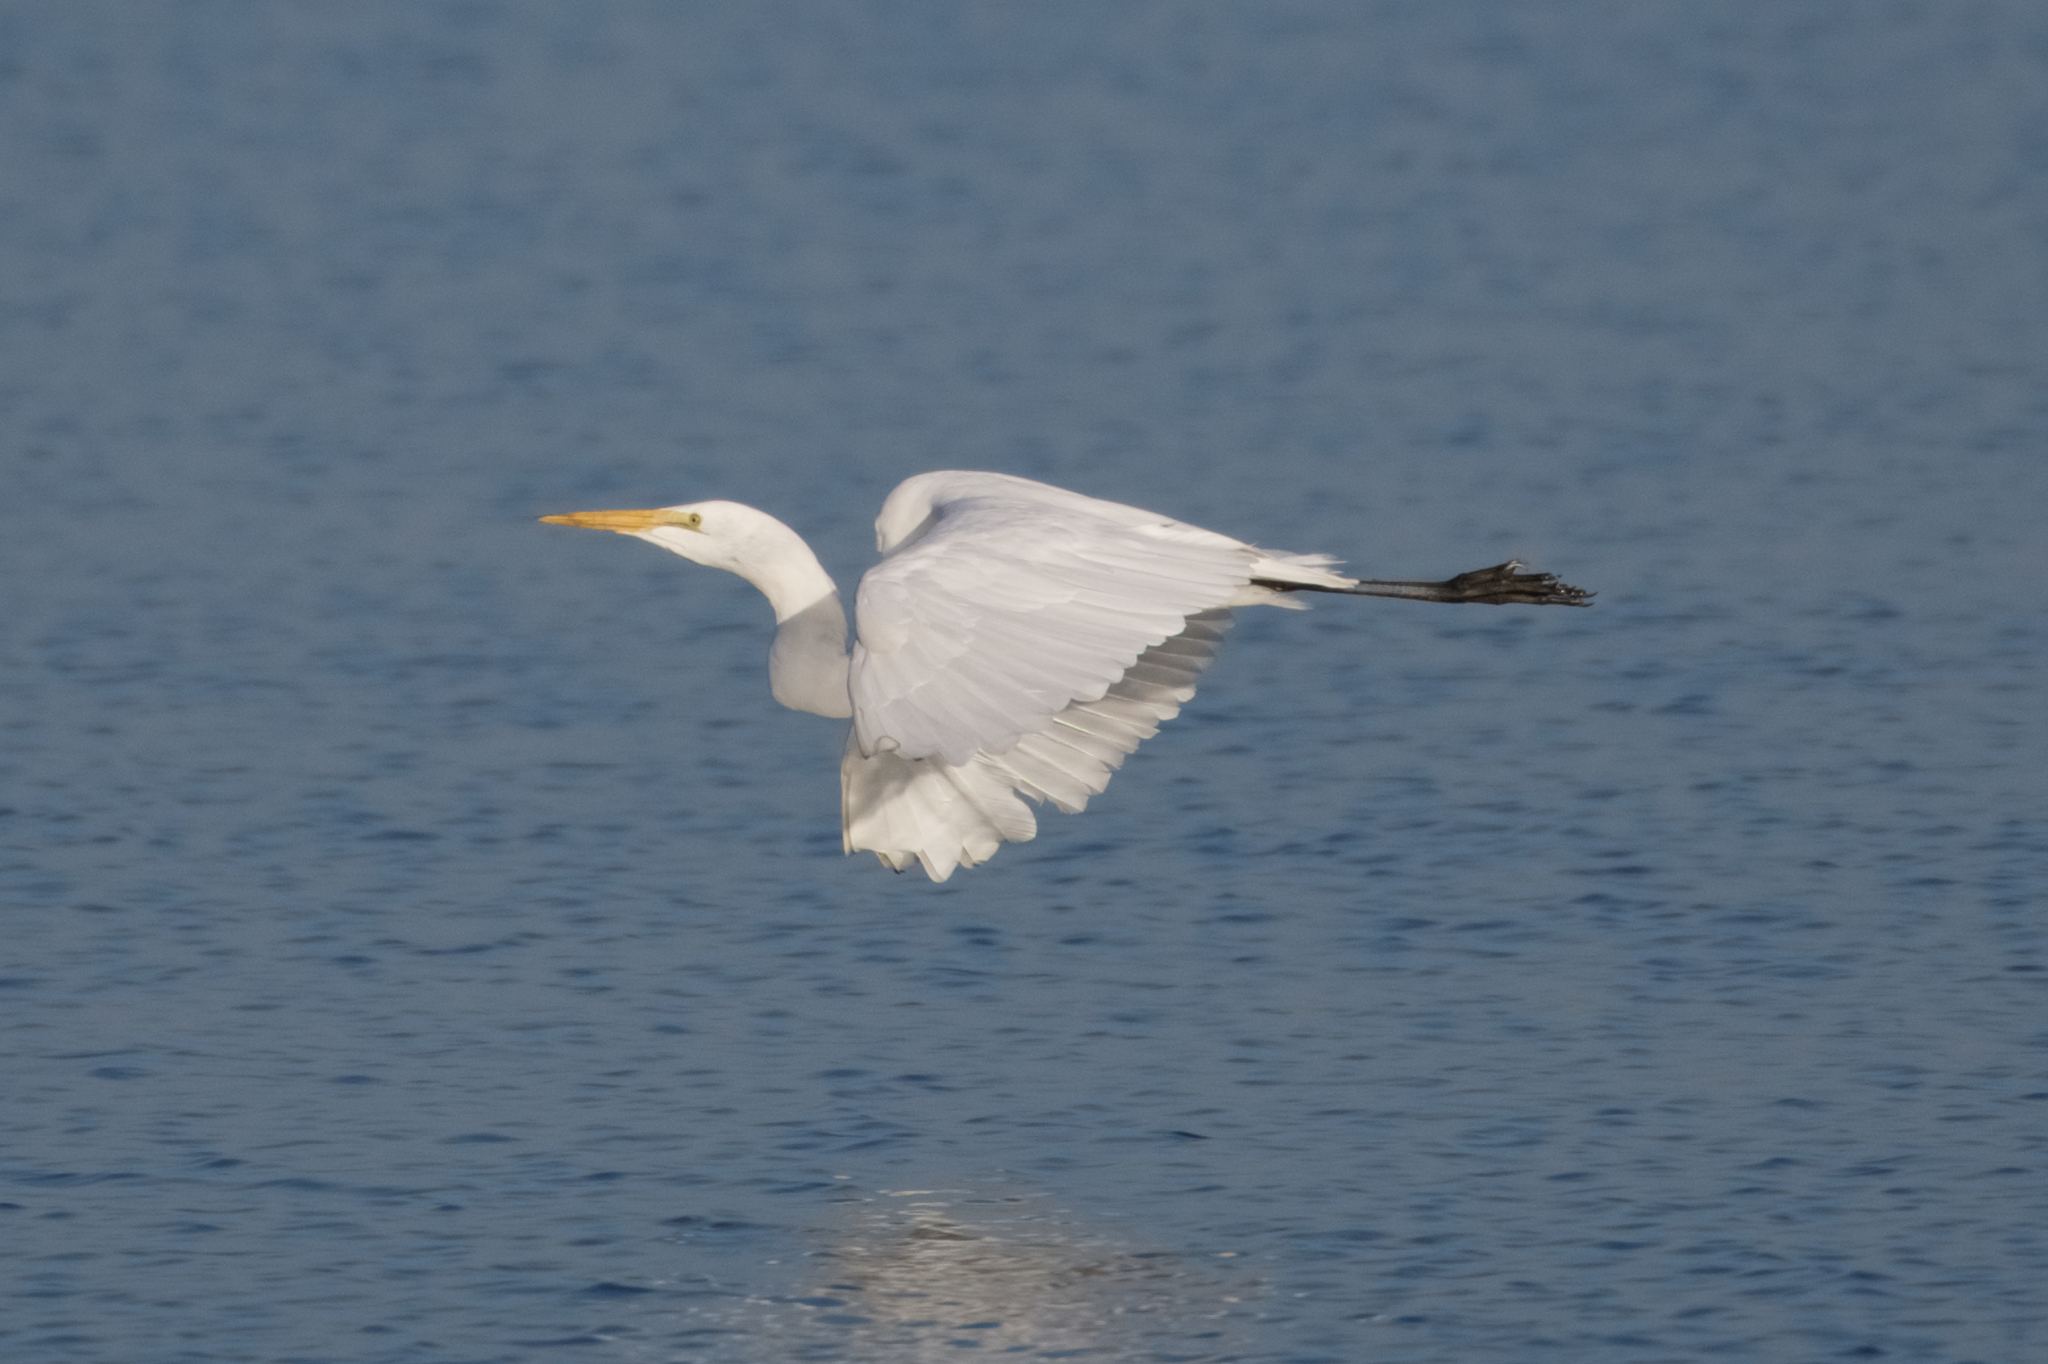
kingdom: Animalia
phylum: Chordata
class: Aves
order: Pelecaniformes
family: Ardeidae
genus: Ardea
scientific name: Ardea alba
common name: Great egret
